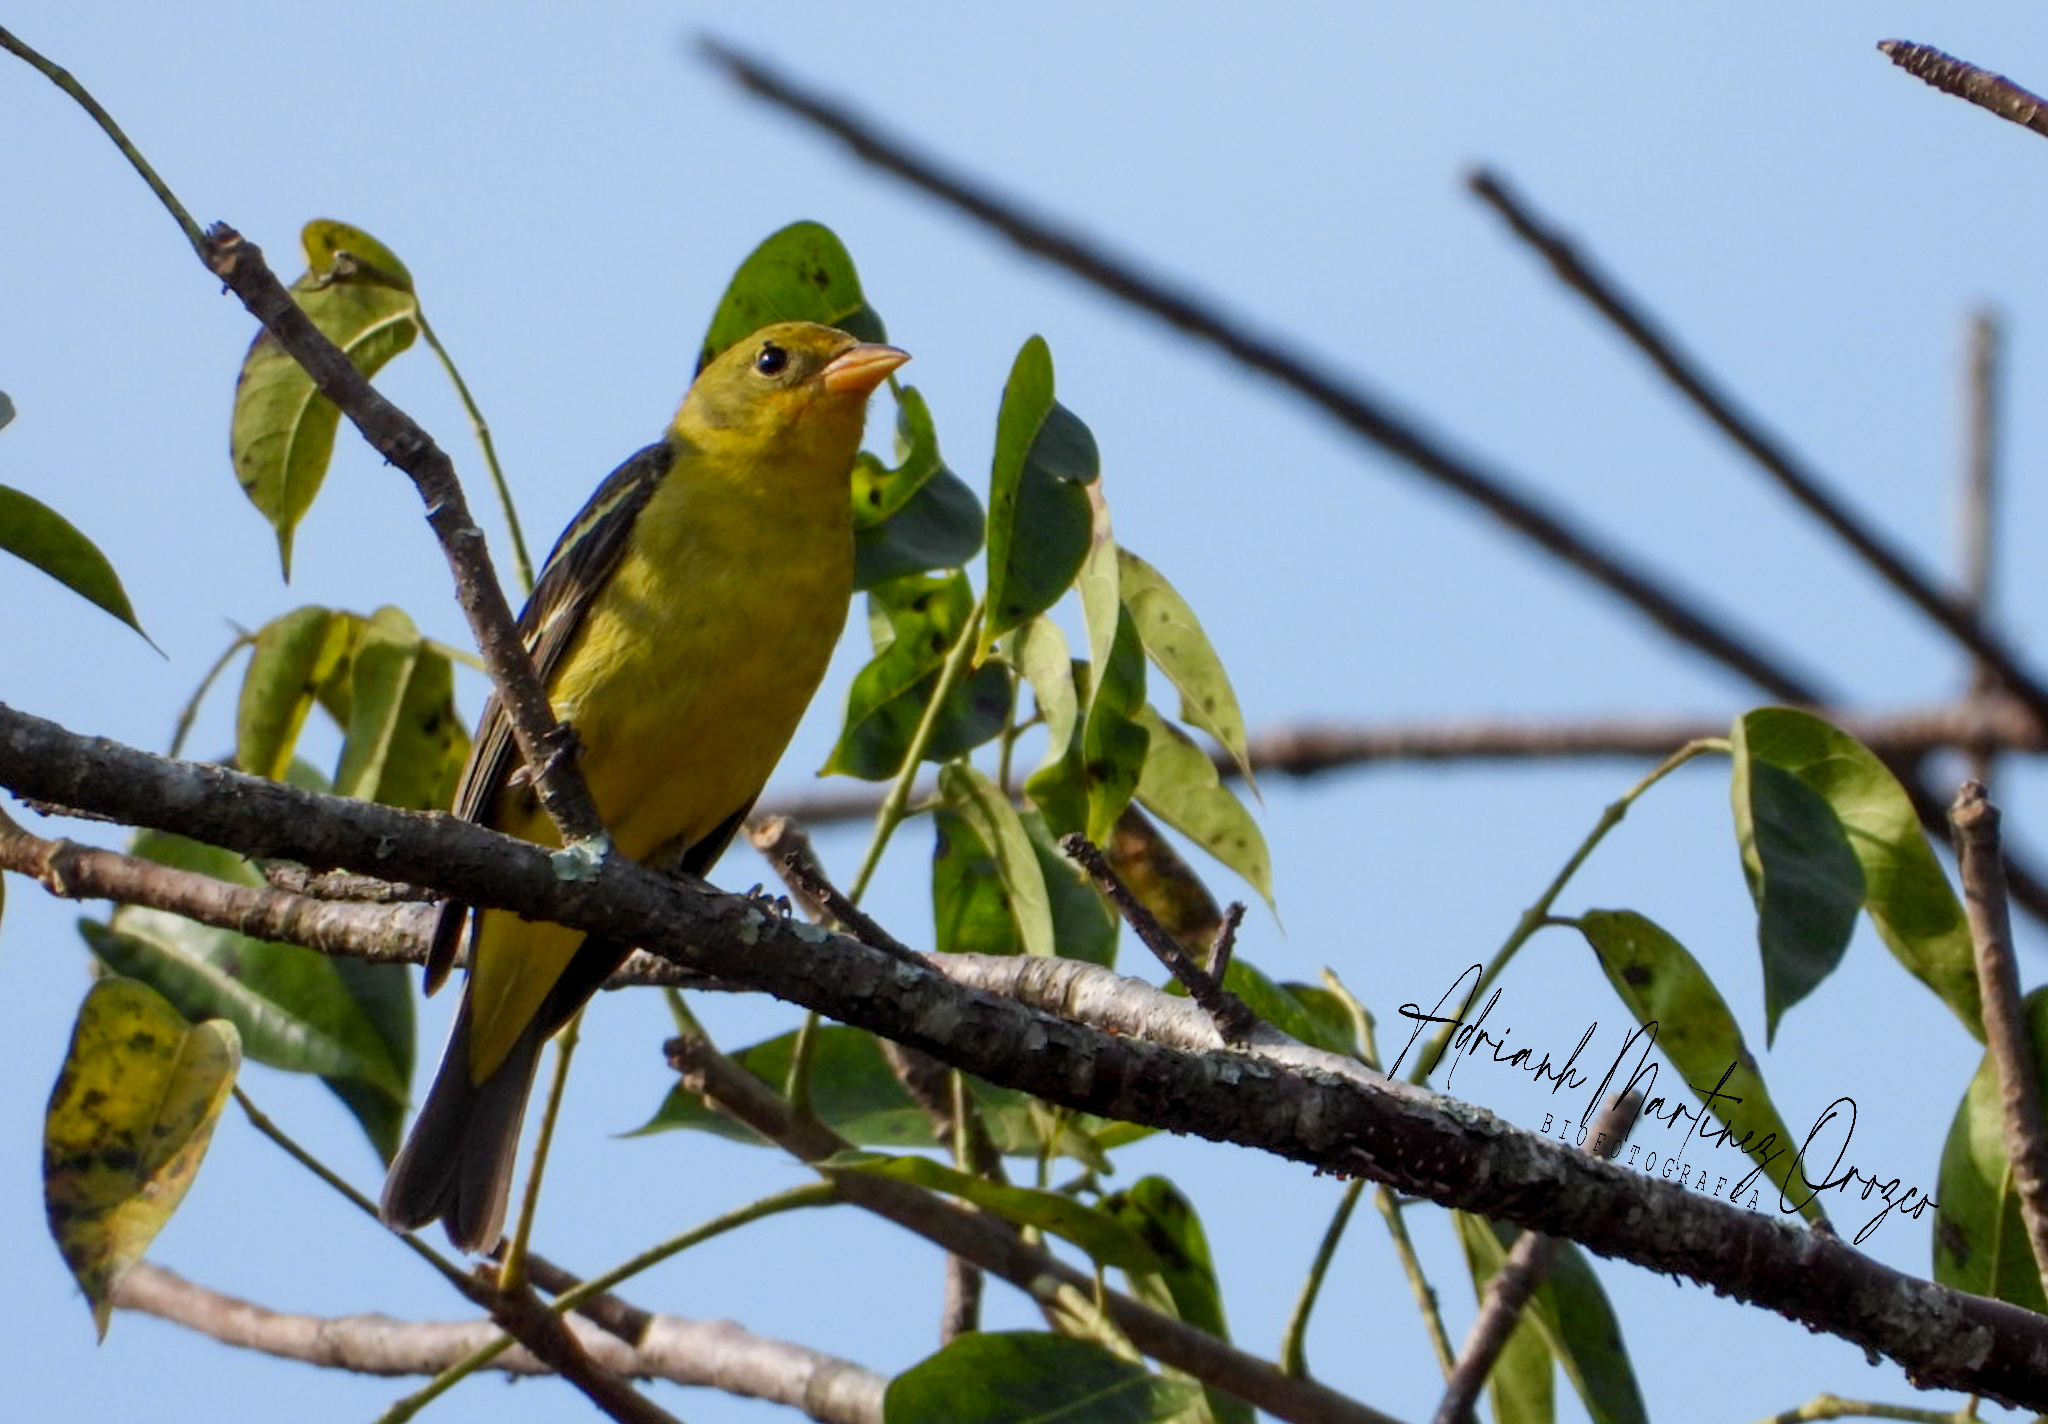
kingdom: Animalia
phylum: Chordata
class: Aves
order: Passeriformes
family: Cardinalidae
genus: Piranga
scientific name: Piranga ludoviciana
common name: Western tanager
